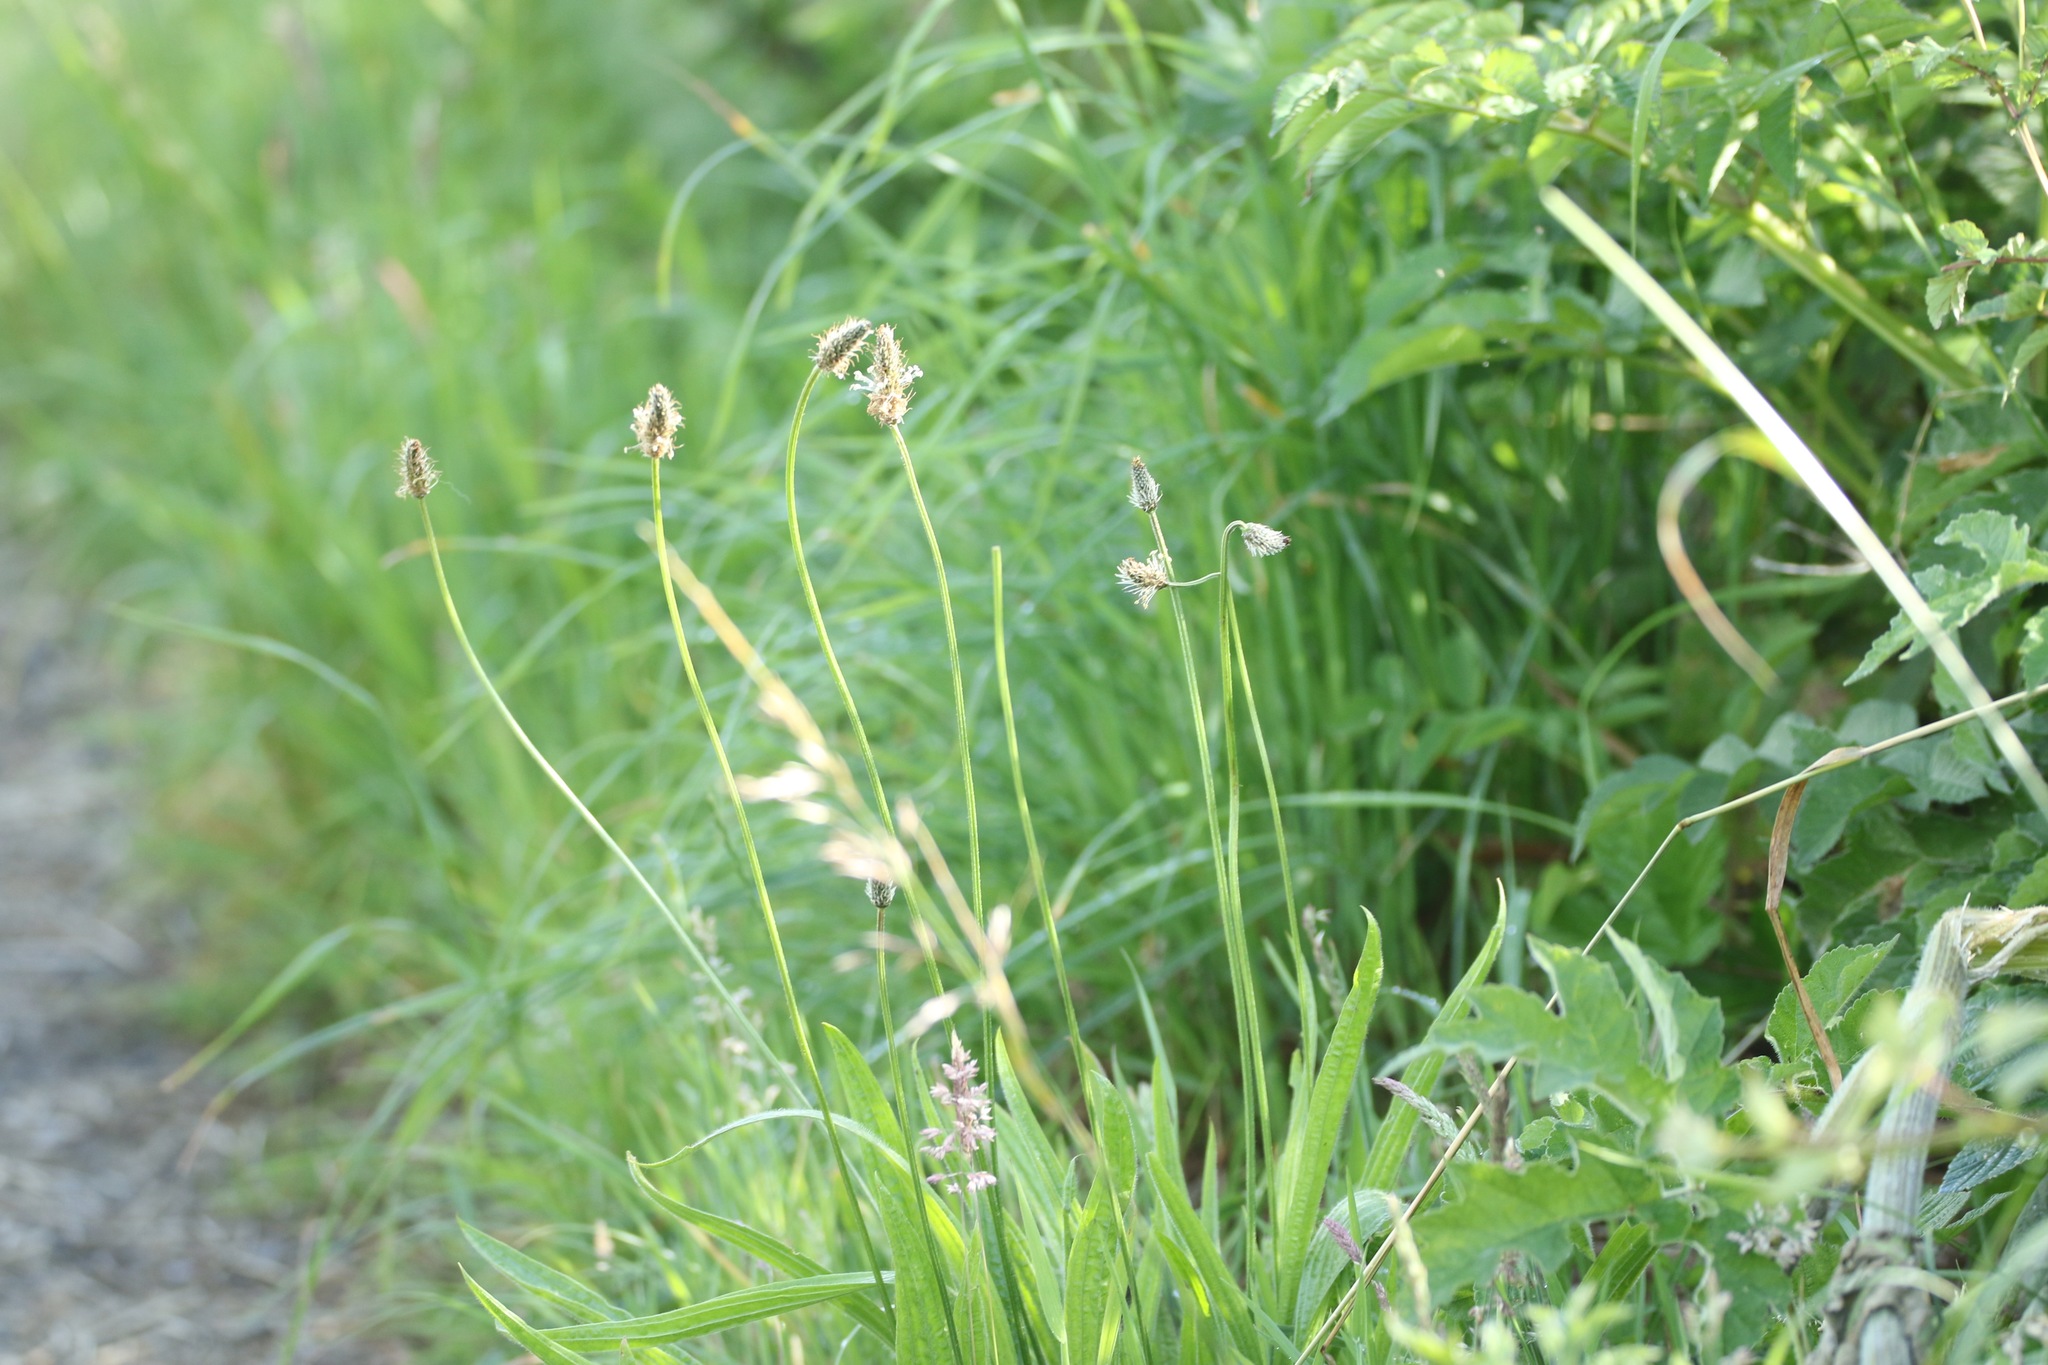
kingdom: Plantae
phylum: Tracheophyta
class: Magnoliopsida
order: Lamiales
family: Plantaginaceae
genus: Plantago
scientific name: Plantago lanceolata
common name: Ribwort plantain
